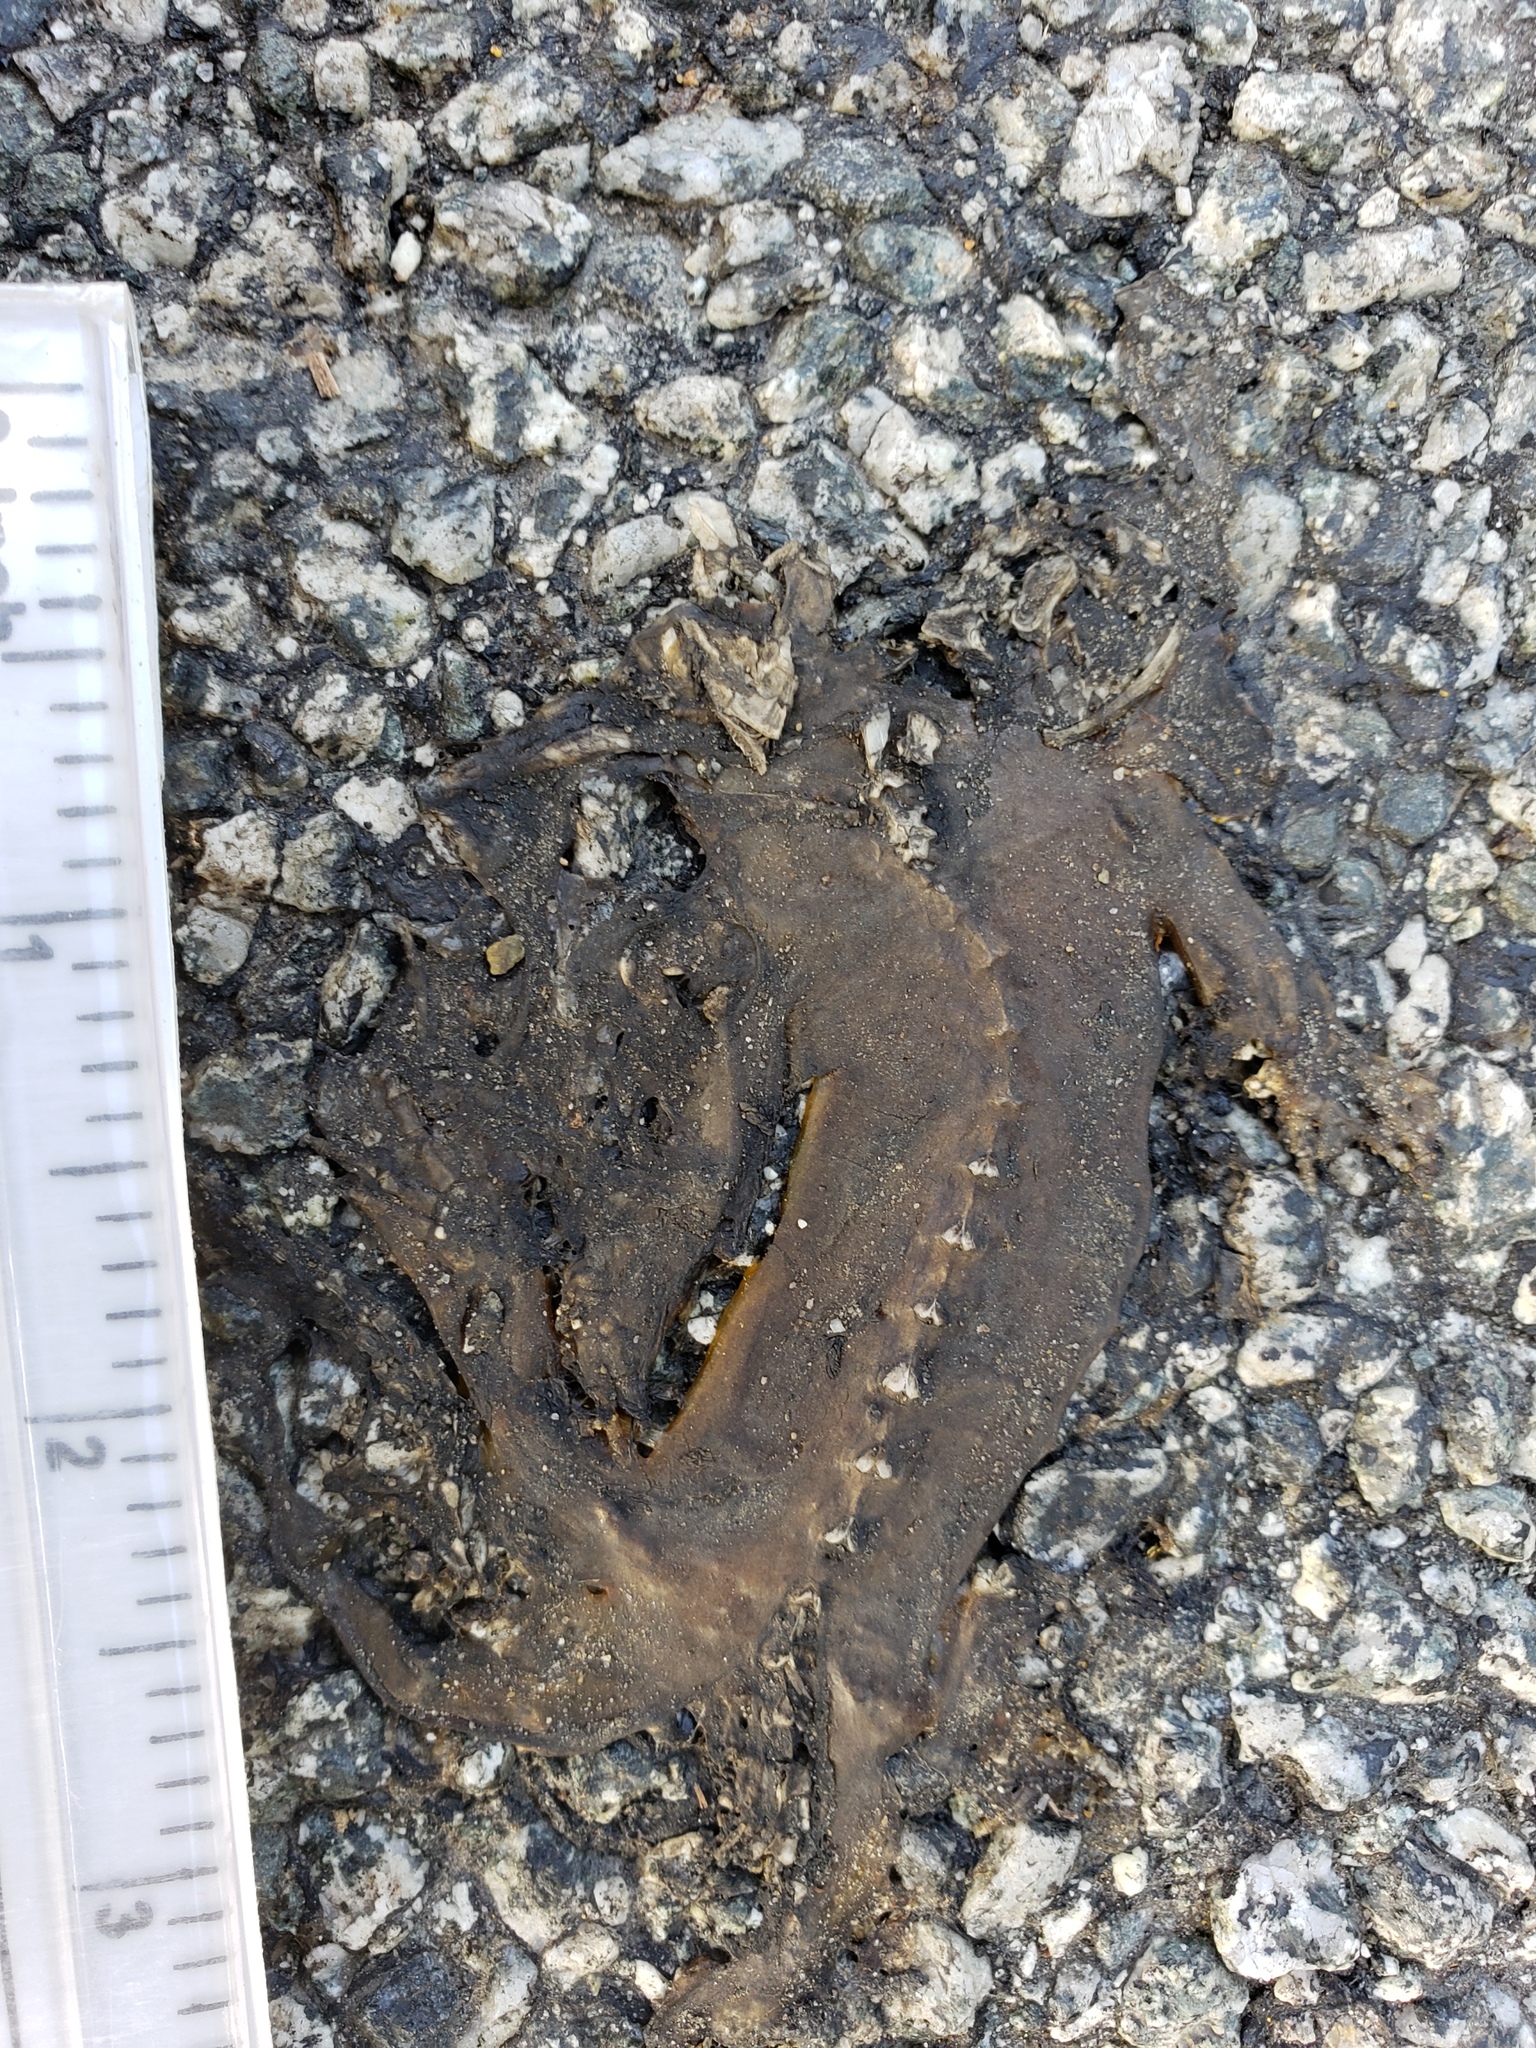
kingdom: Animalia
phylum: Chordata
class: Amphibia
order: Caudata
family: Salamandridae
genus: Taricha
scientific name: Taricha
